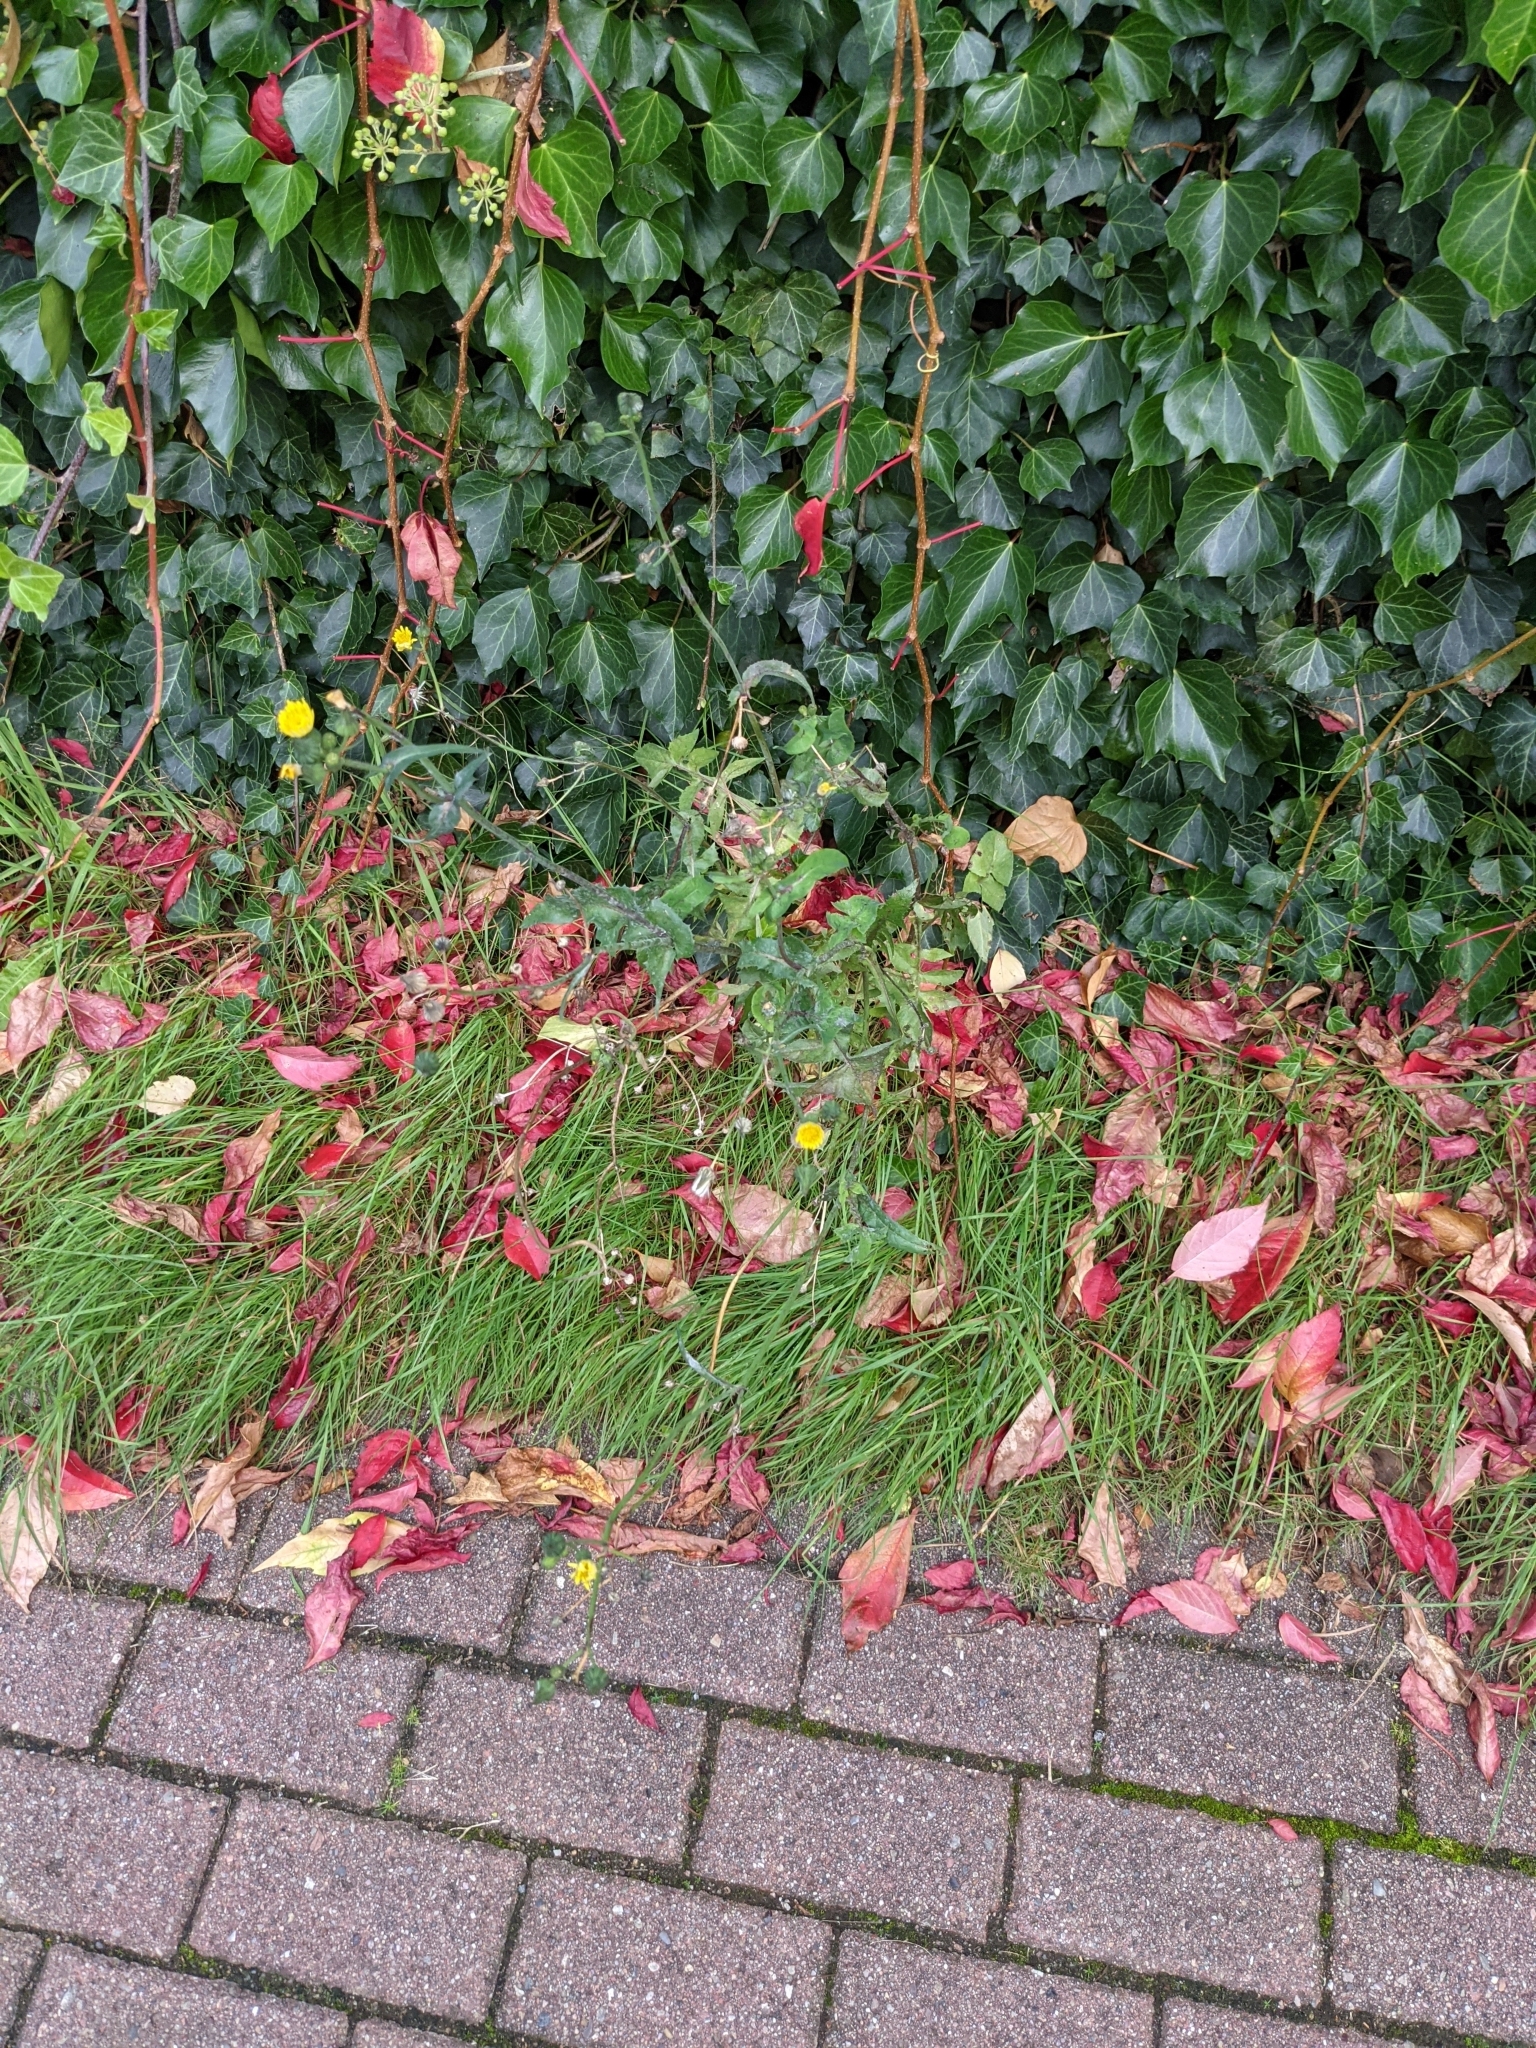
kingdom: Plantae
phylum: Tracheophyta
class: Magnoliopsida
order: Asterales
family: Asteraceae
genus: Sonchus
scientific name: Sonchus oleraceus
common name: Common sowthistle
